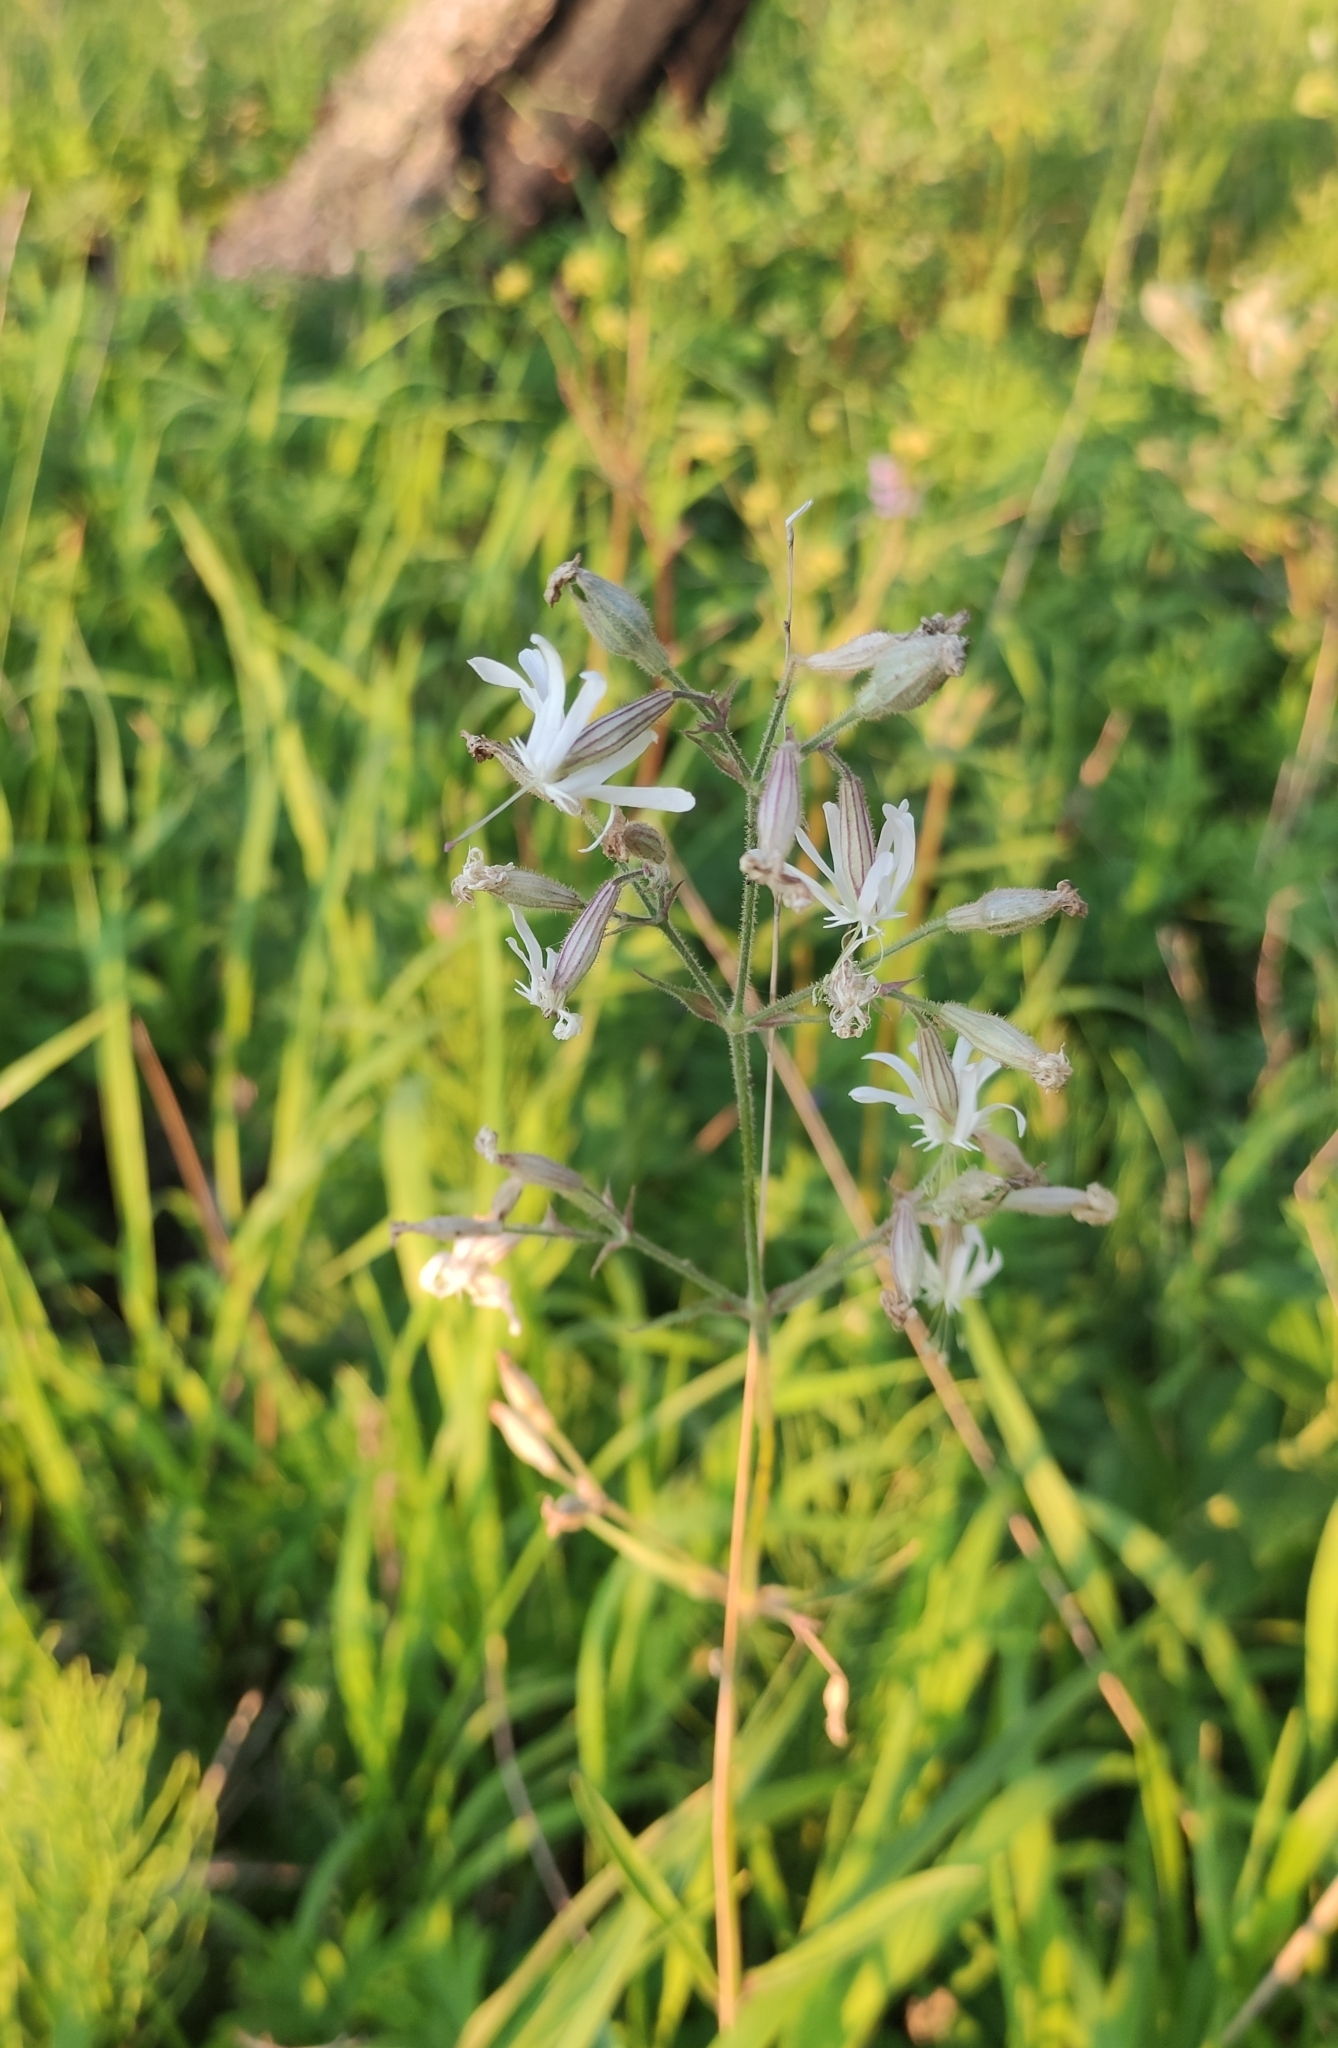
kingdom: Plantae
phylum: Tracheophyta
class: Magnoliopsida
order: Caryophyllales
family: Caryophyllaceae
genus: Silene
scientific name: Silene nutans
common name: Nottingham catchfly
